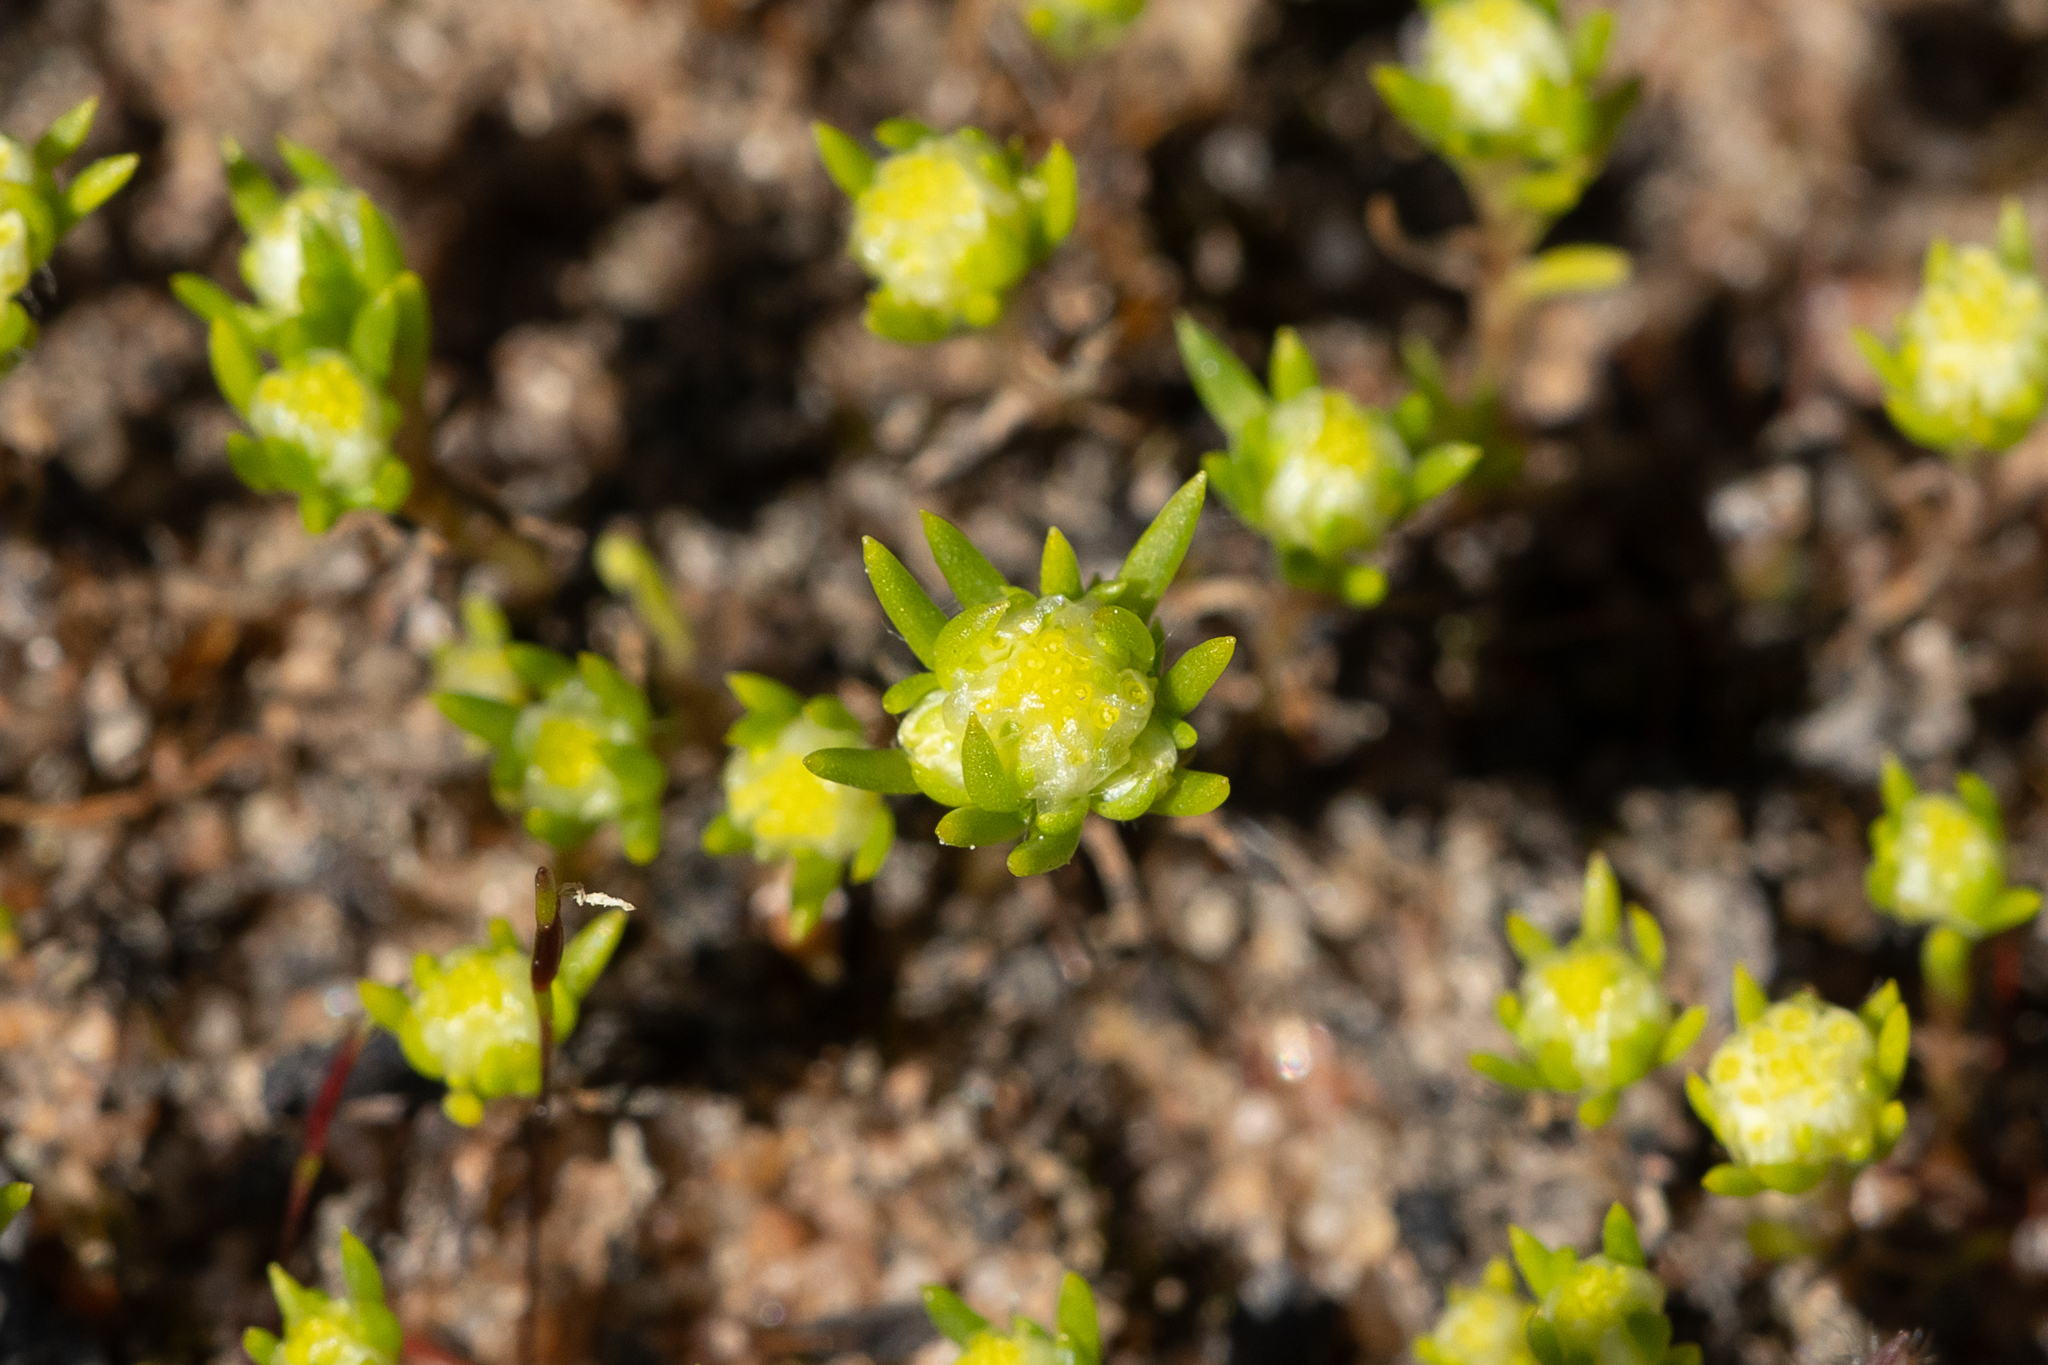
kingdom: Plantae
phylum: Tracheophyta
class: Magnoliopsida
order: Asterales
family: Asteraceae
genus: Siloxerus
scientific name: Siloxerus multiflorus
